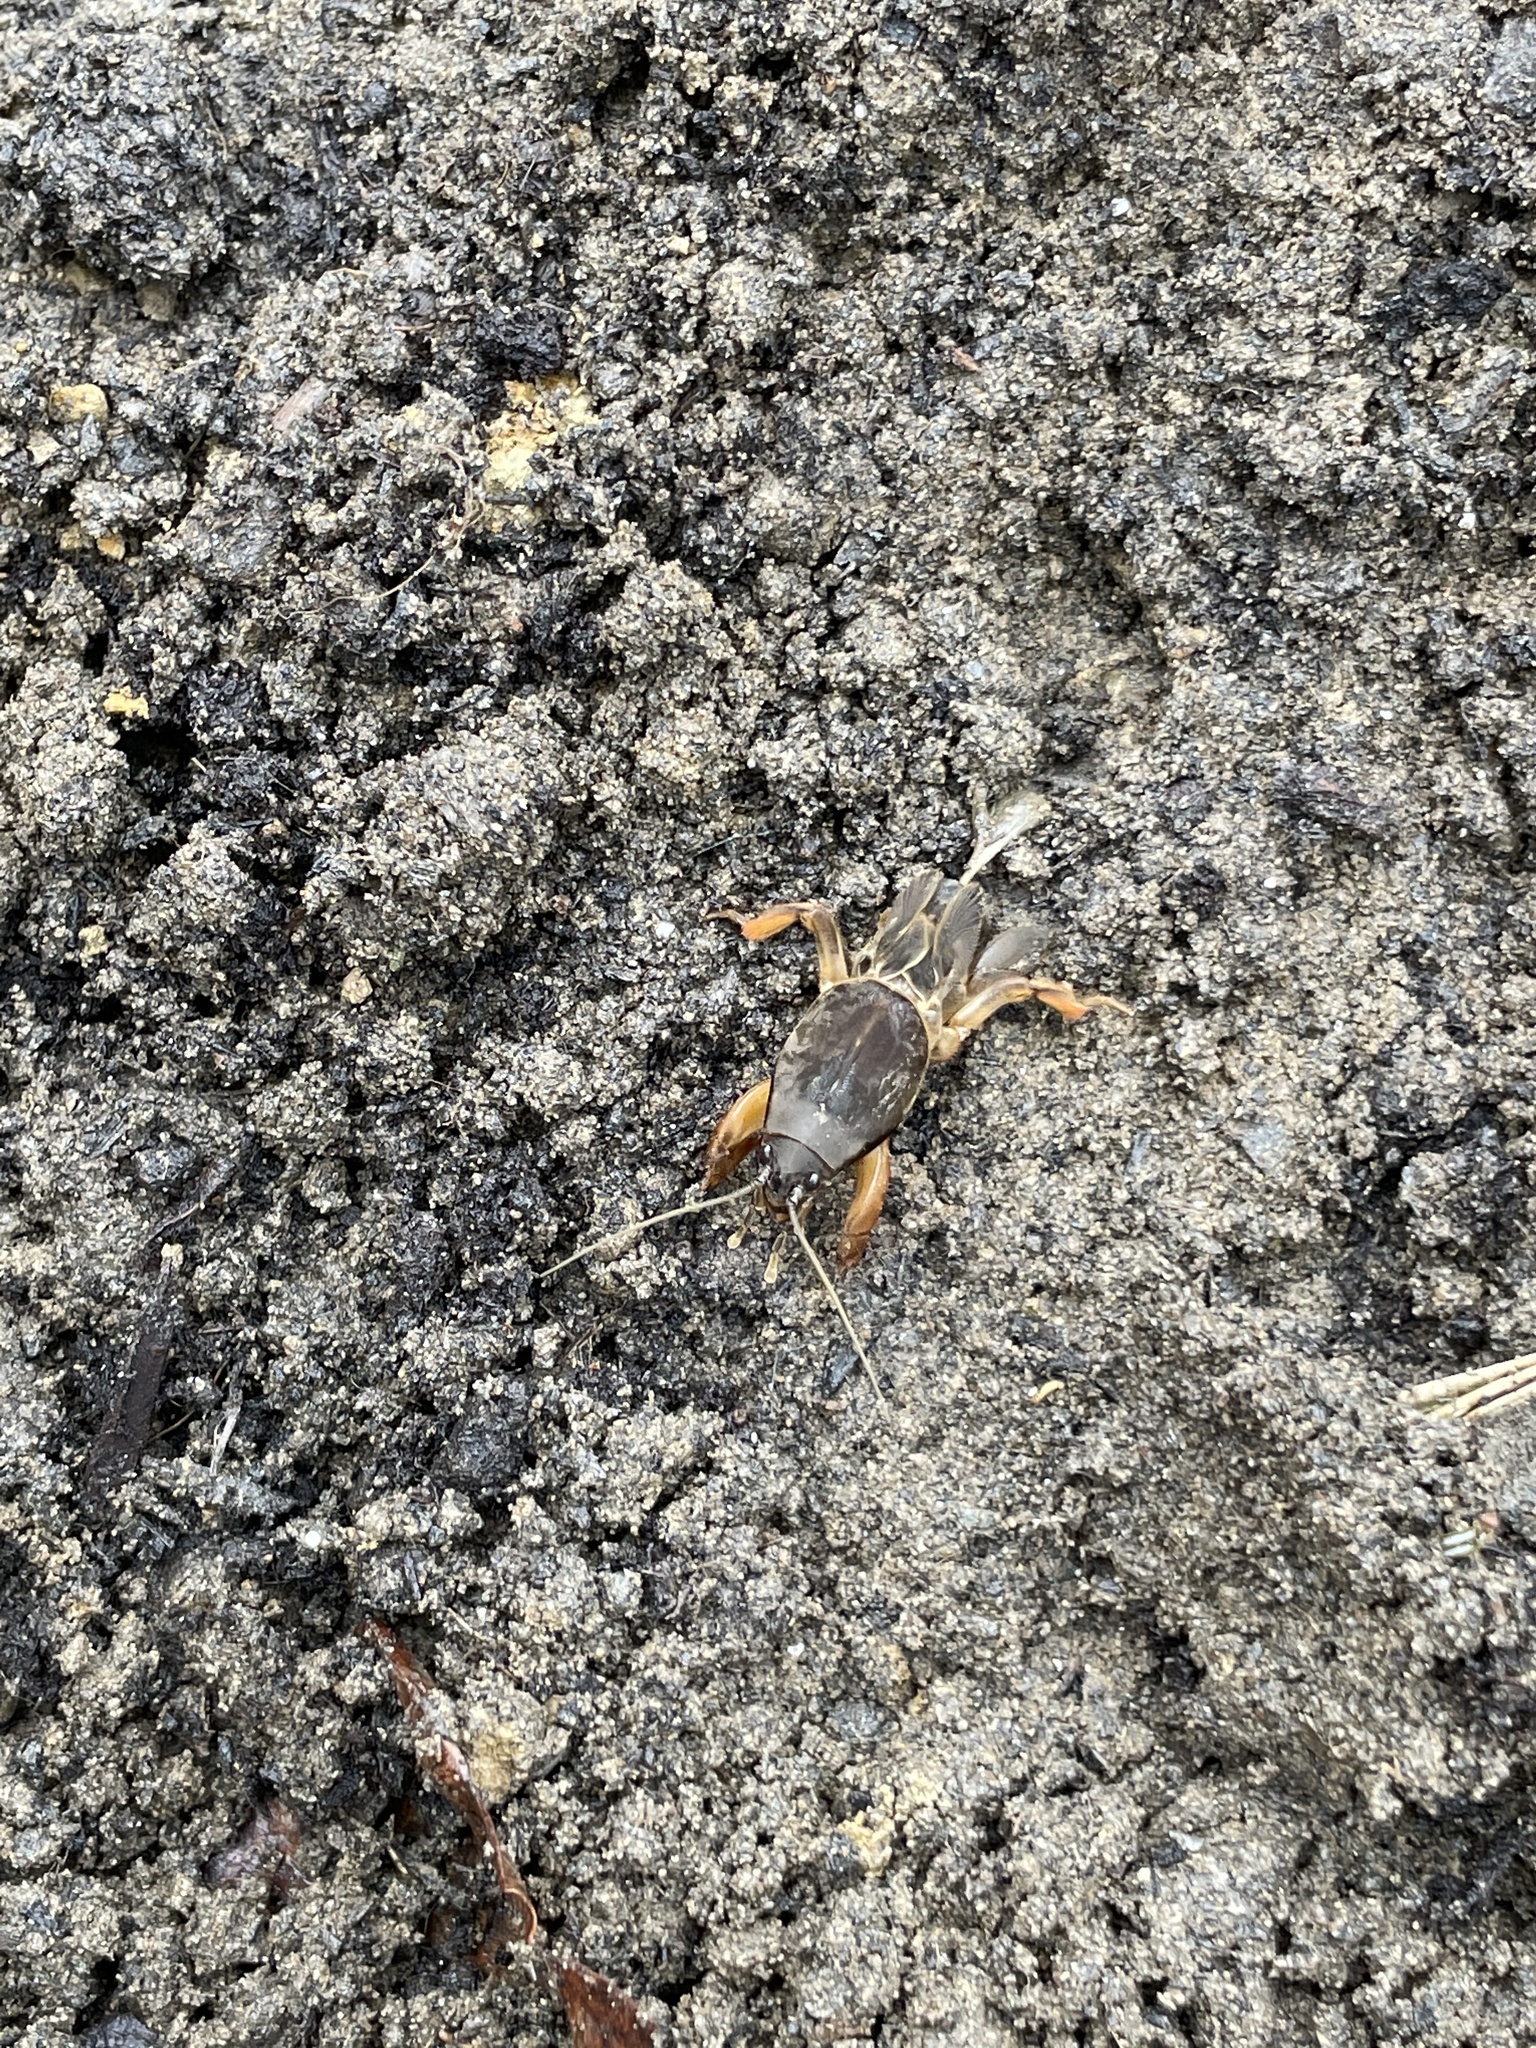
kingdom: Animalia
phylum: Arthropoda
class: Insecta
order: Orthoptera
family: Gryllotalpidae
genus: Gryllotalpa
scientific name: Gryllotalpa gryllotalpa
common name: European mole cricket
